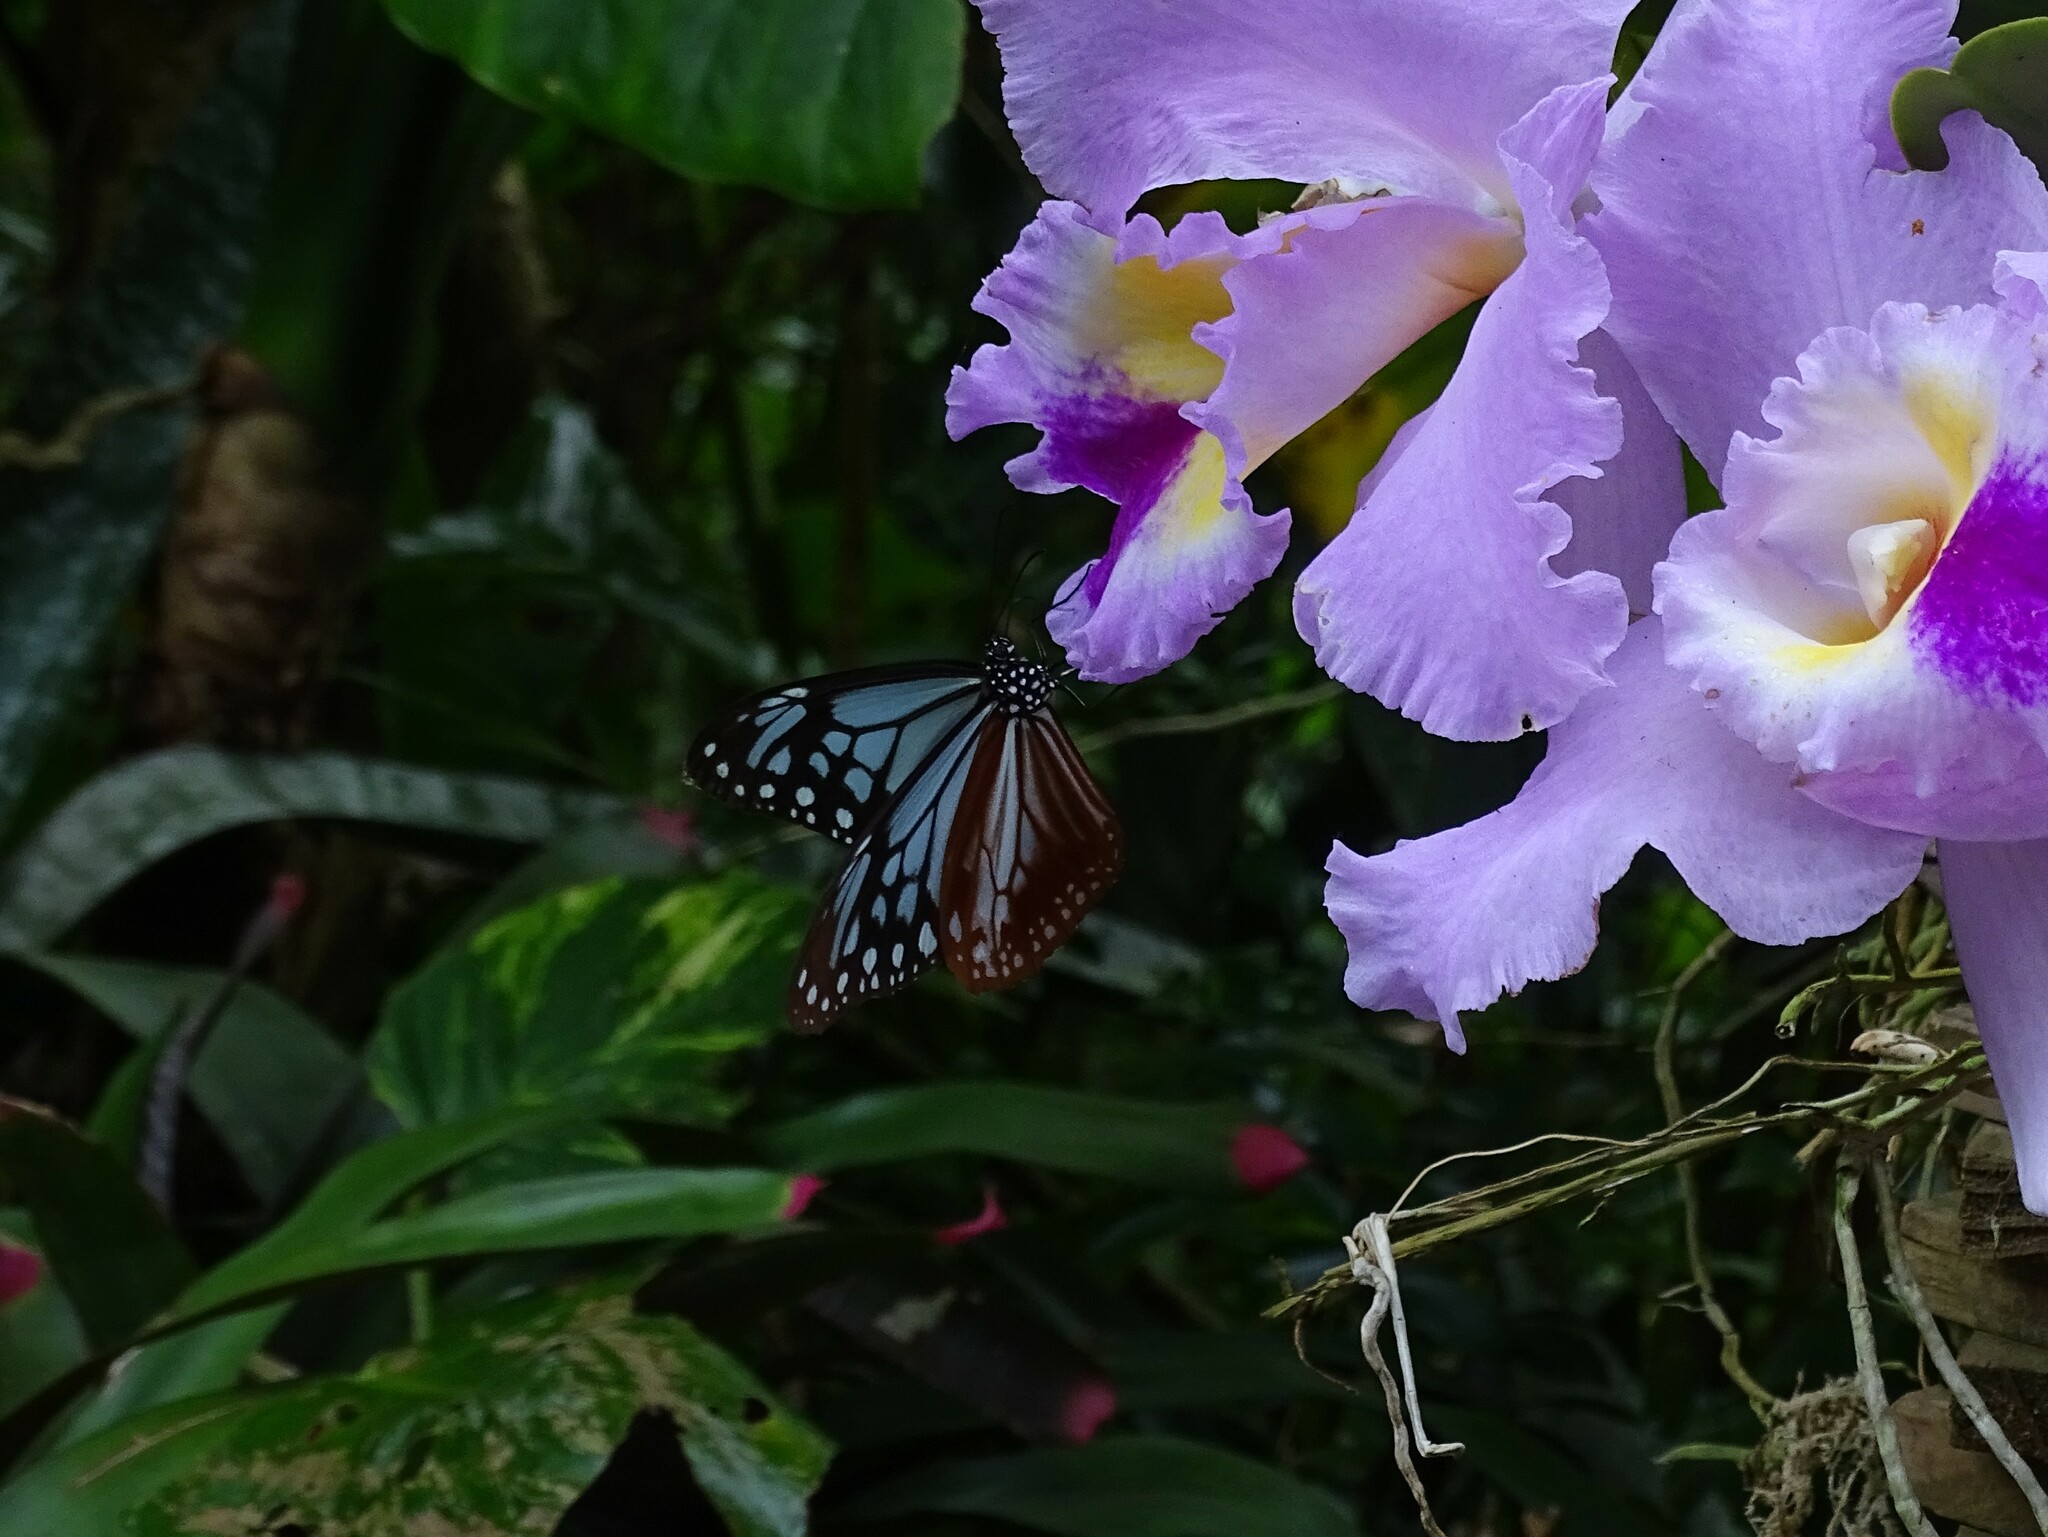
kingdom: Animalia
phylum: Arthropoda
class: Insecta
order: Lepidoptera
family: Nymphalidae
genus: Parantica
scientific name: Parantica sita
